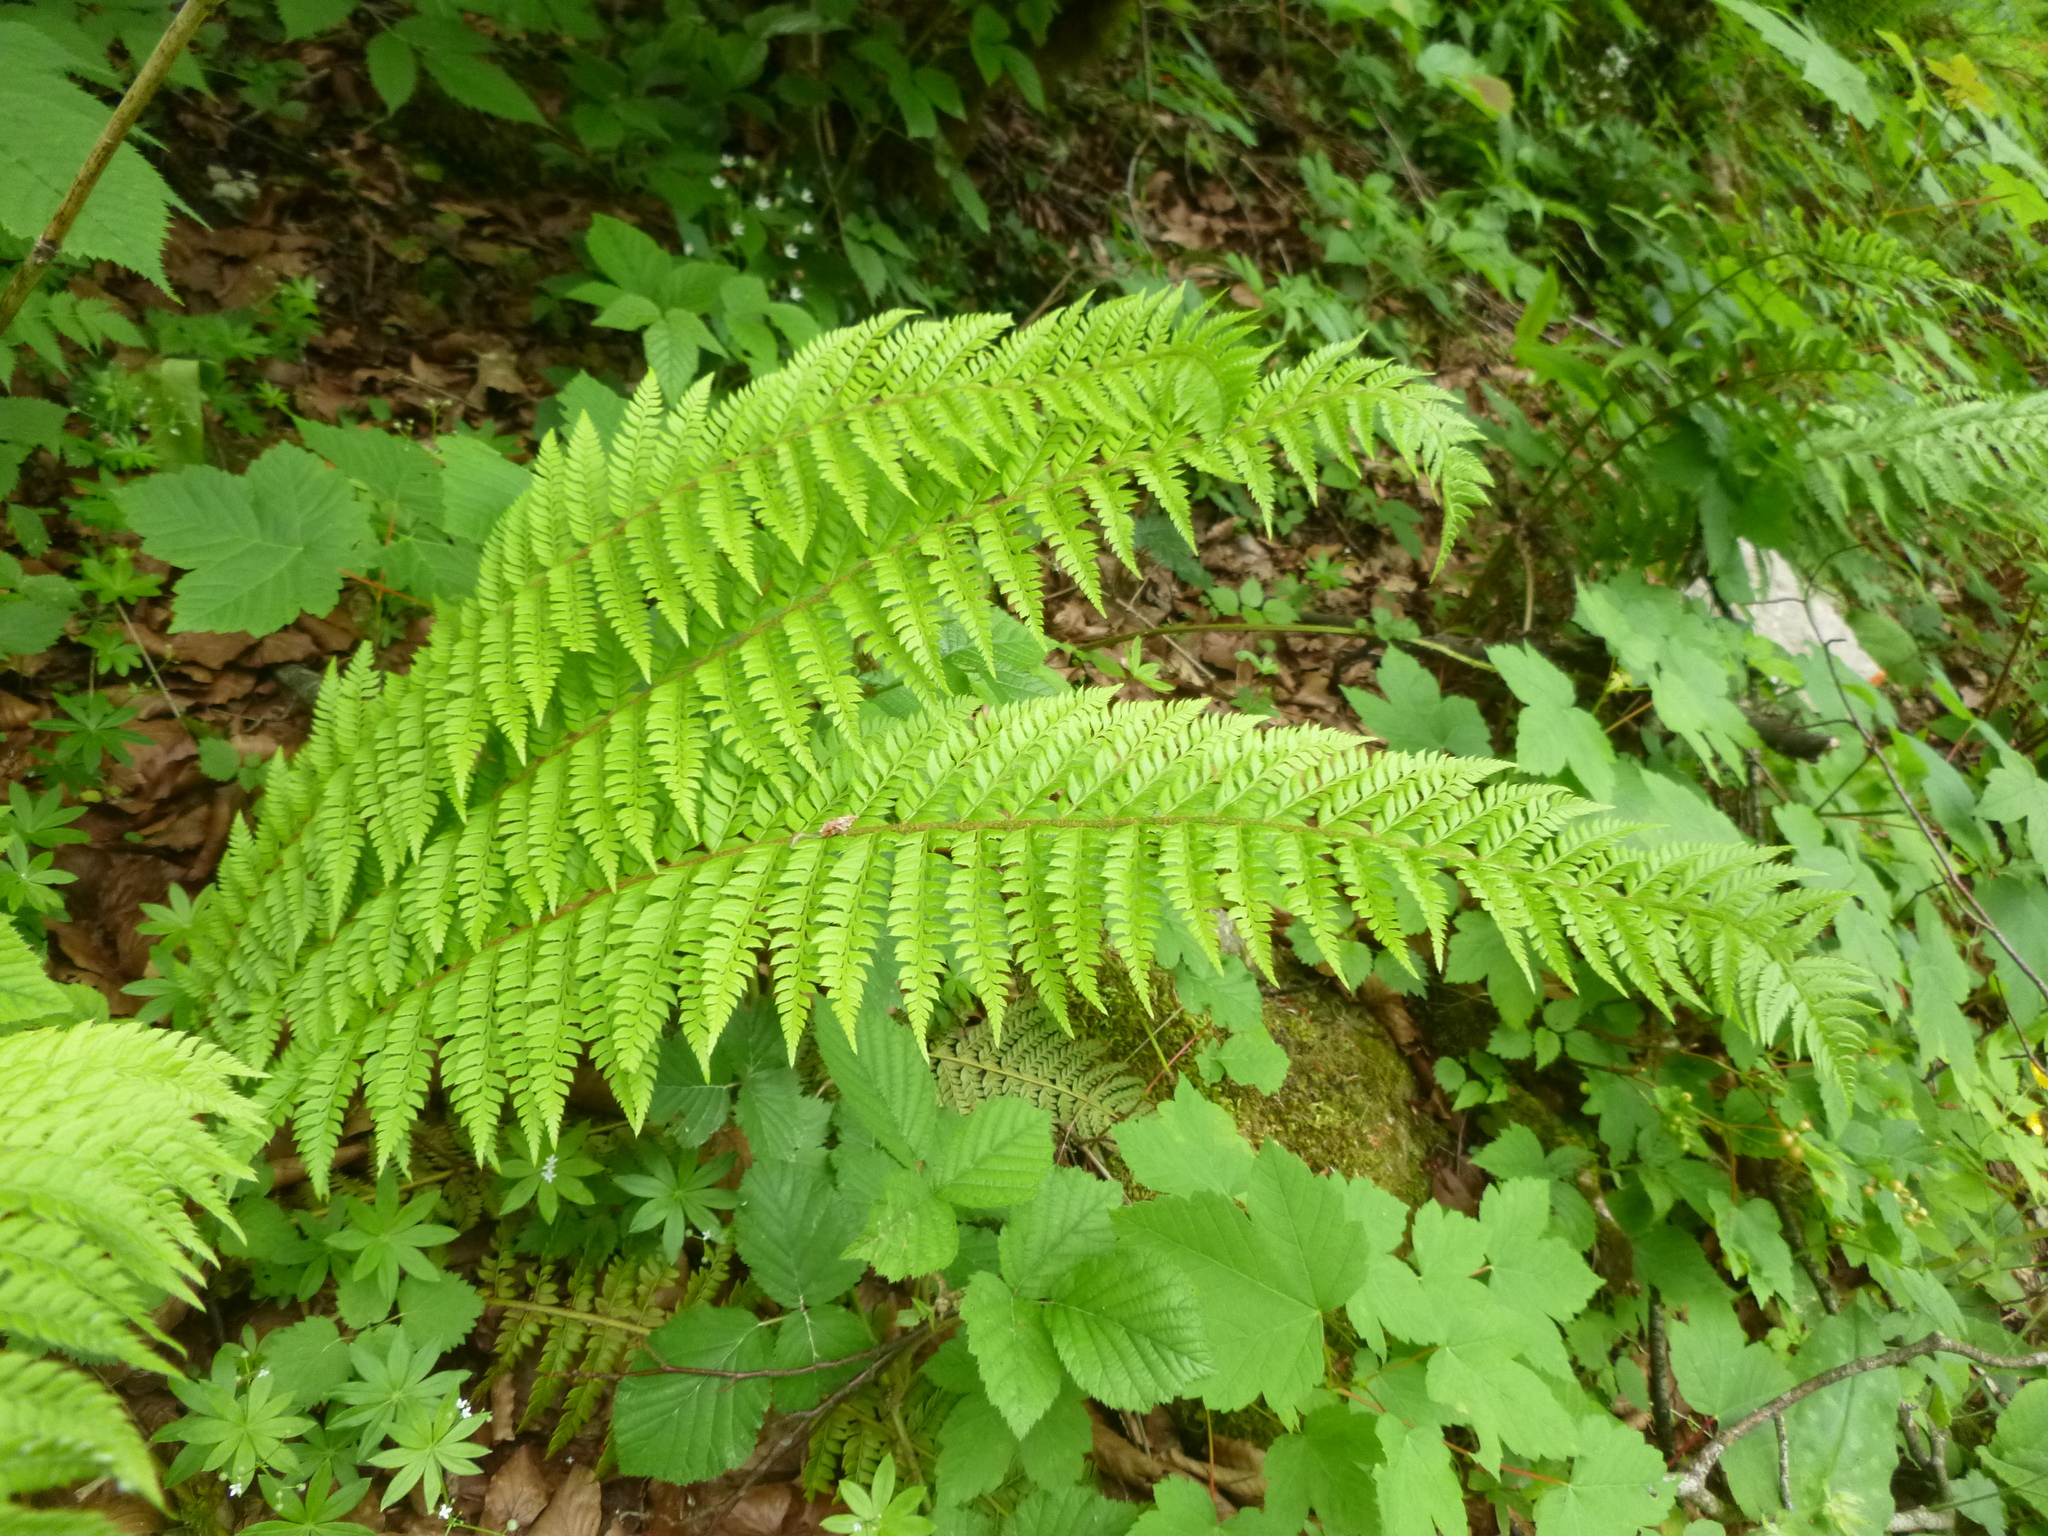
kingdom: Plantae
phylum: Tracheophyta
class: Polypodiopsida
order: Polypodiales
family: Dryopteridaceae
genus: Polystichum
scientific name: Polystichum aculeatum
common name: Hard shield-fern
